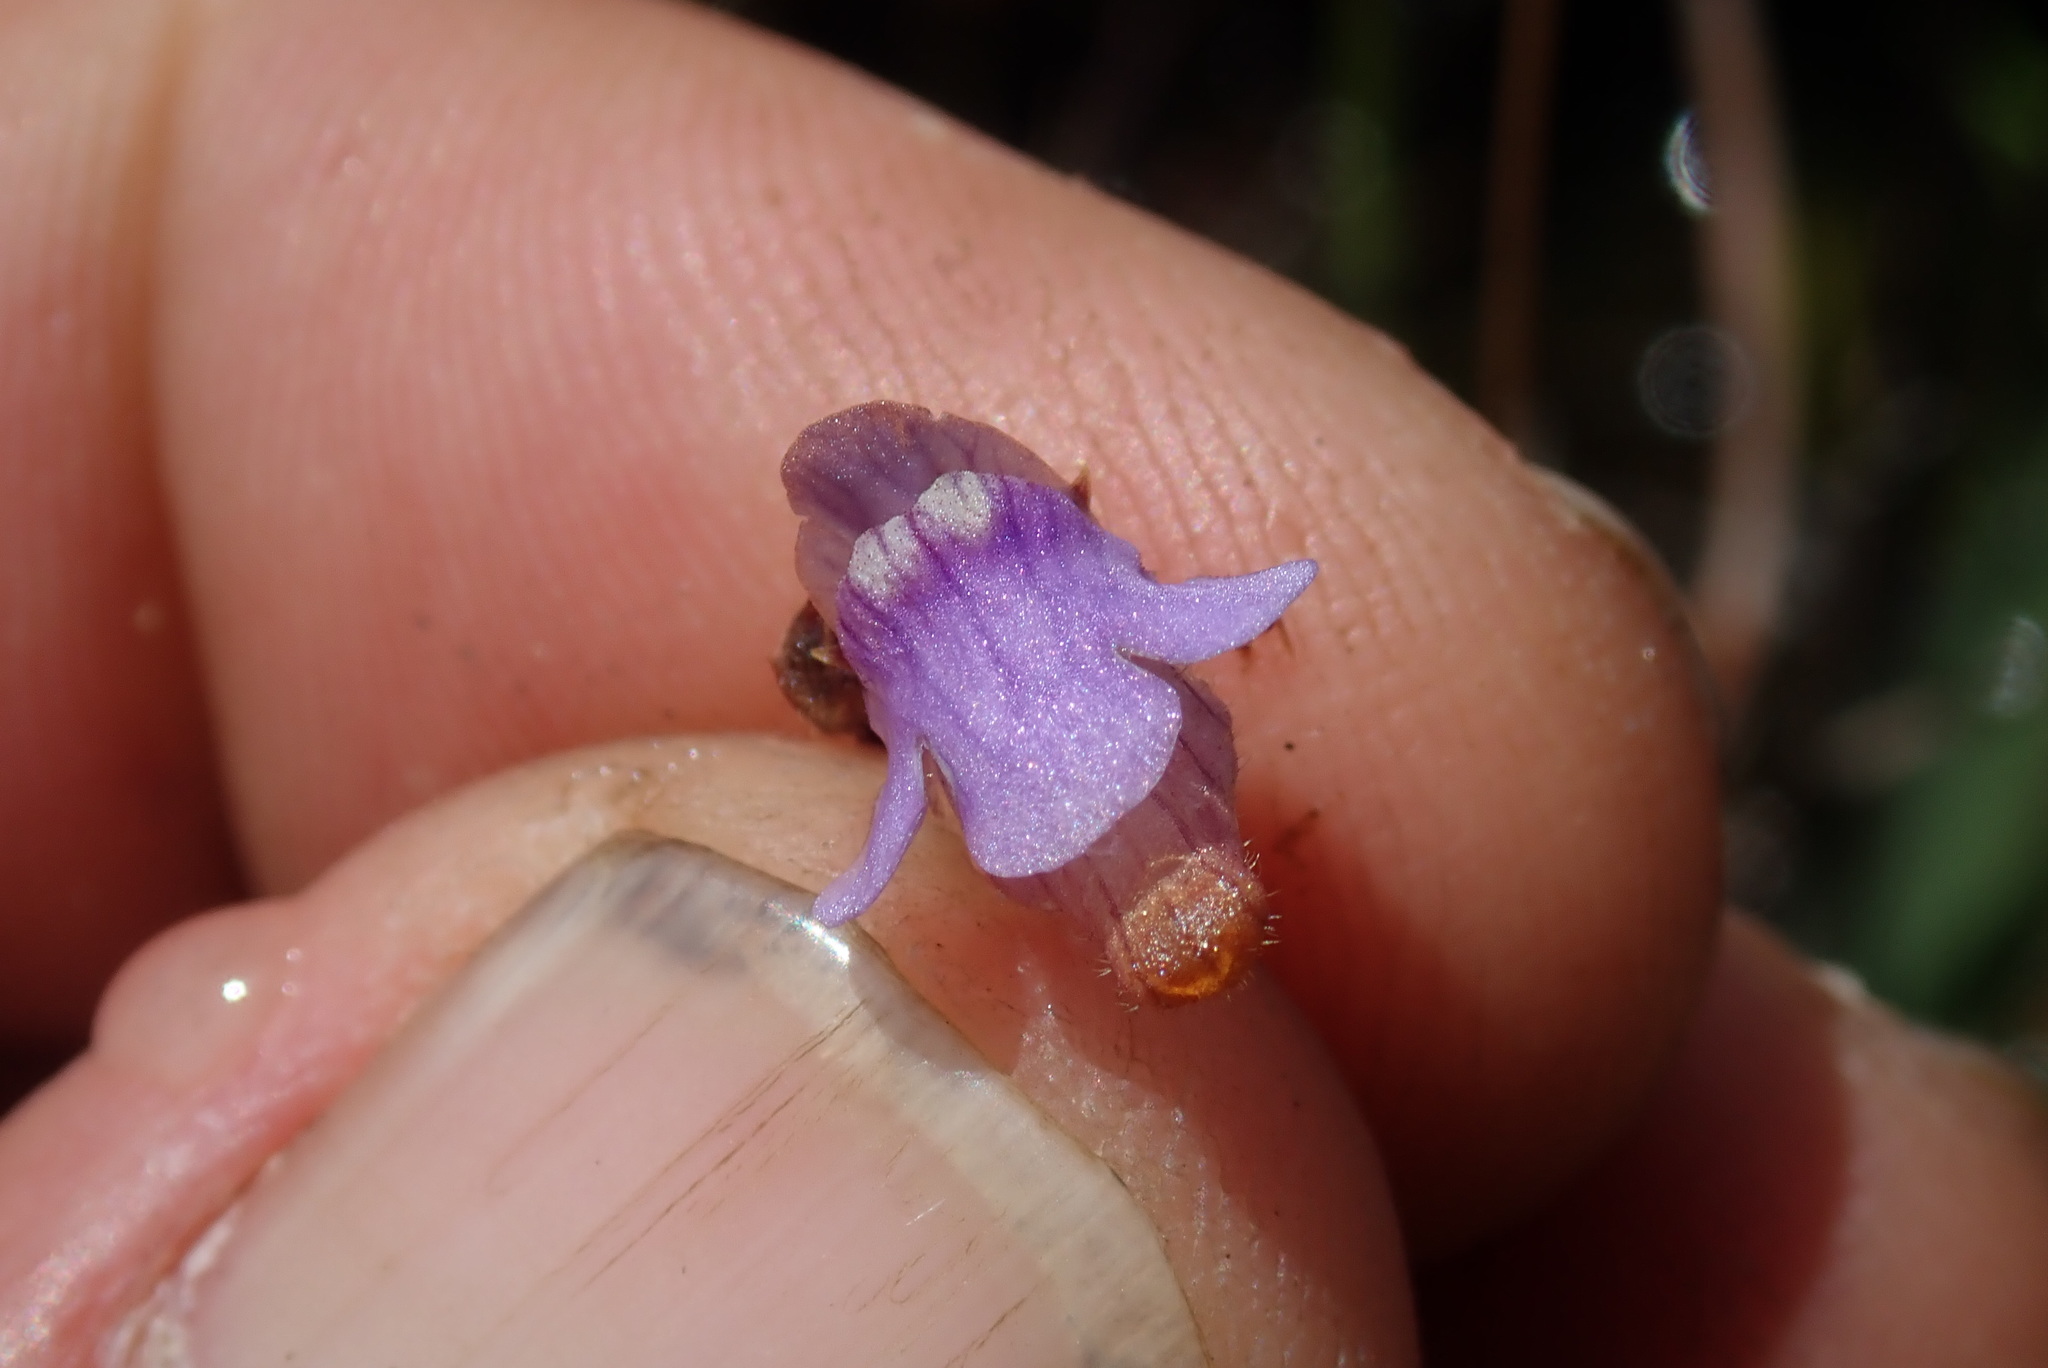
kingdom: Plantae
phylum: Tracheophyta
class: Magnoliopsida
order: Lamiales
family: Lentibulariaceae
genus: Genlisea
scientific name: Genlisea hispidula
